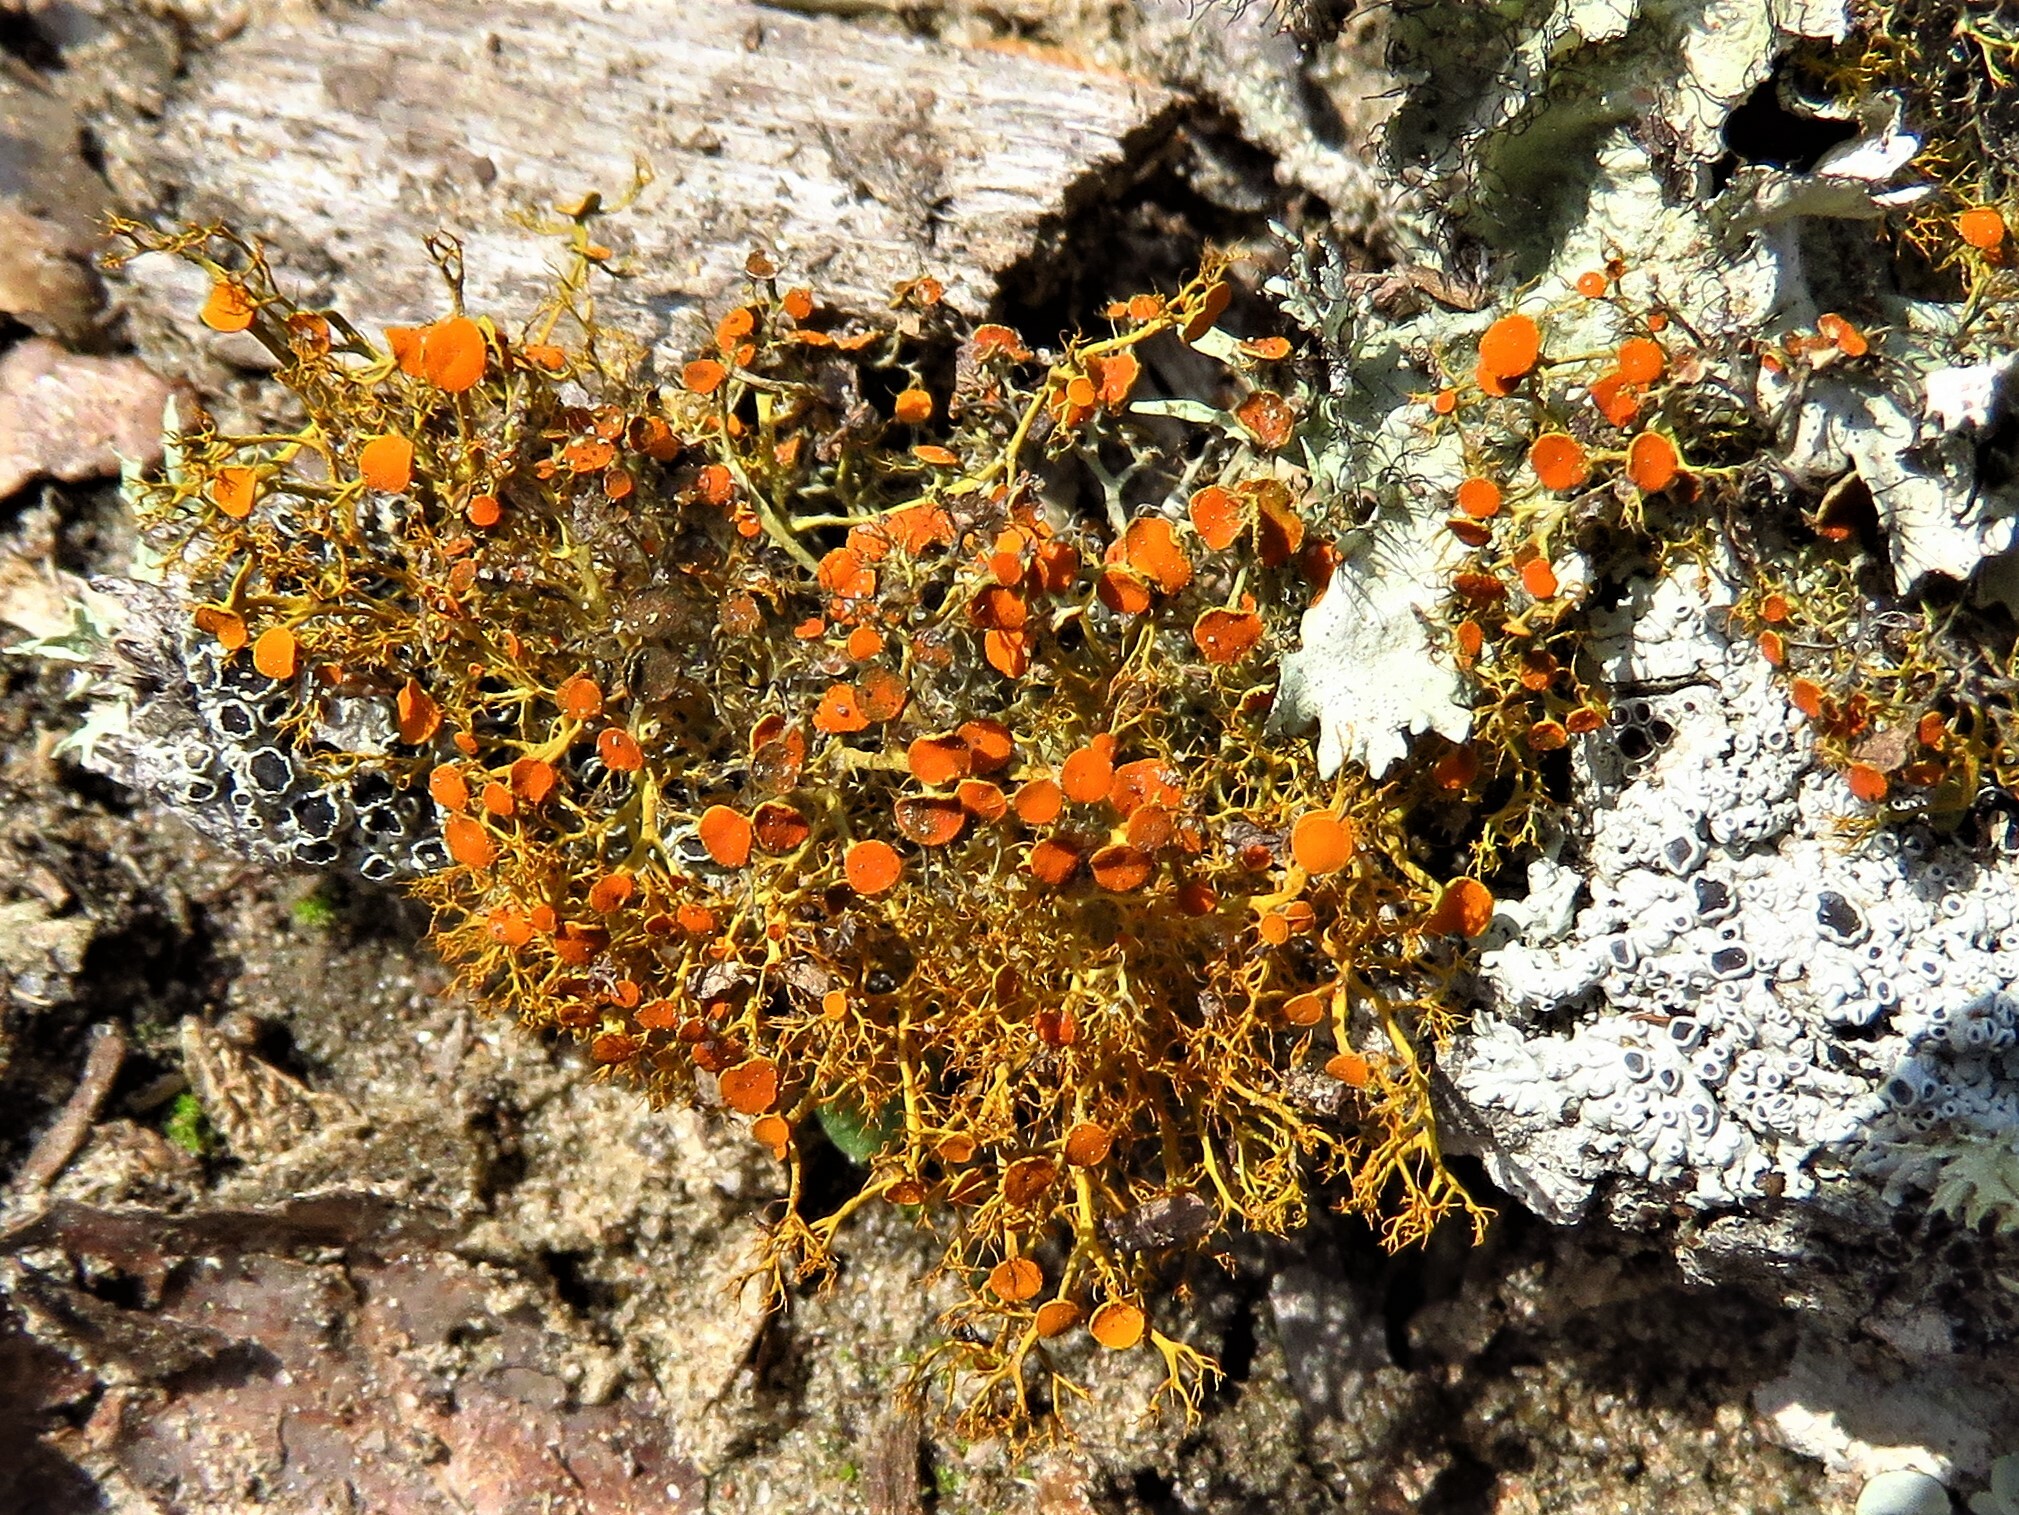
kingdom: Fungi
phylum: Ascomycota
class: Lecanoromycetes
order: Teloschistales
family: Teloschistaceae
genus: Teloschistes
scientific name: Teloschistes exilis
